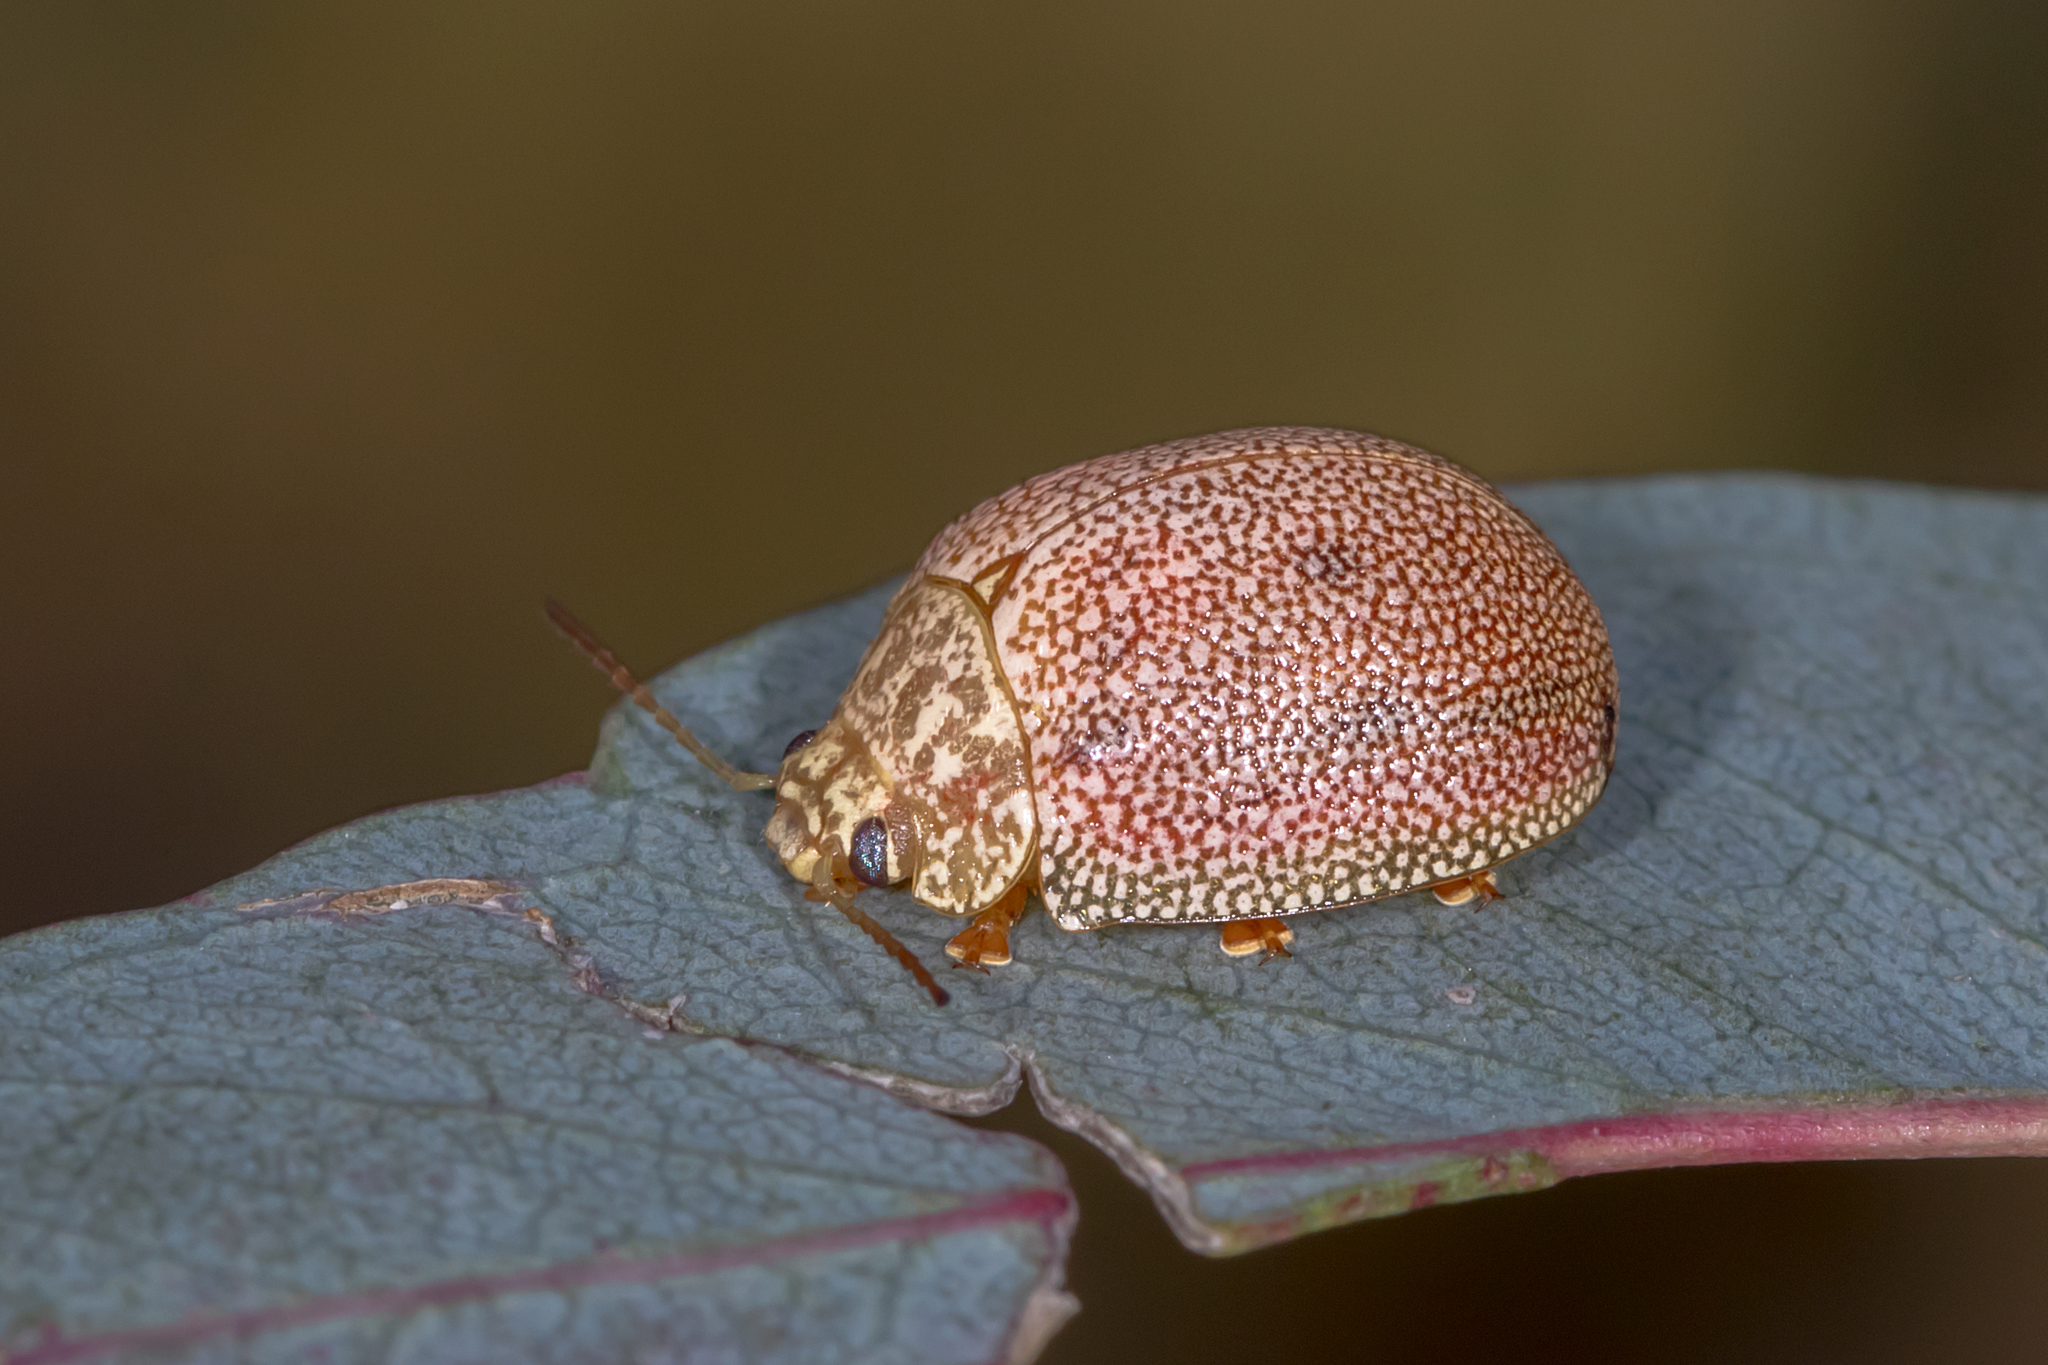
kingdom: Animalia
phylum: Arthropoda
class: Insecta
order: Coleoptera
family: Chrysomelidae
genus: Paropsis
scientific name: Paropsis
